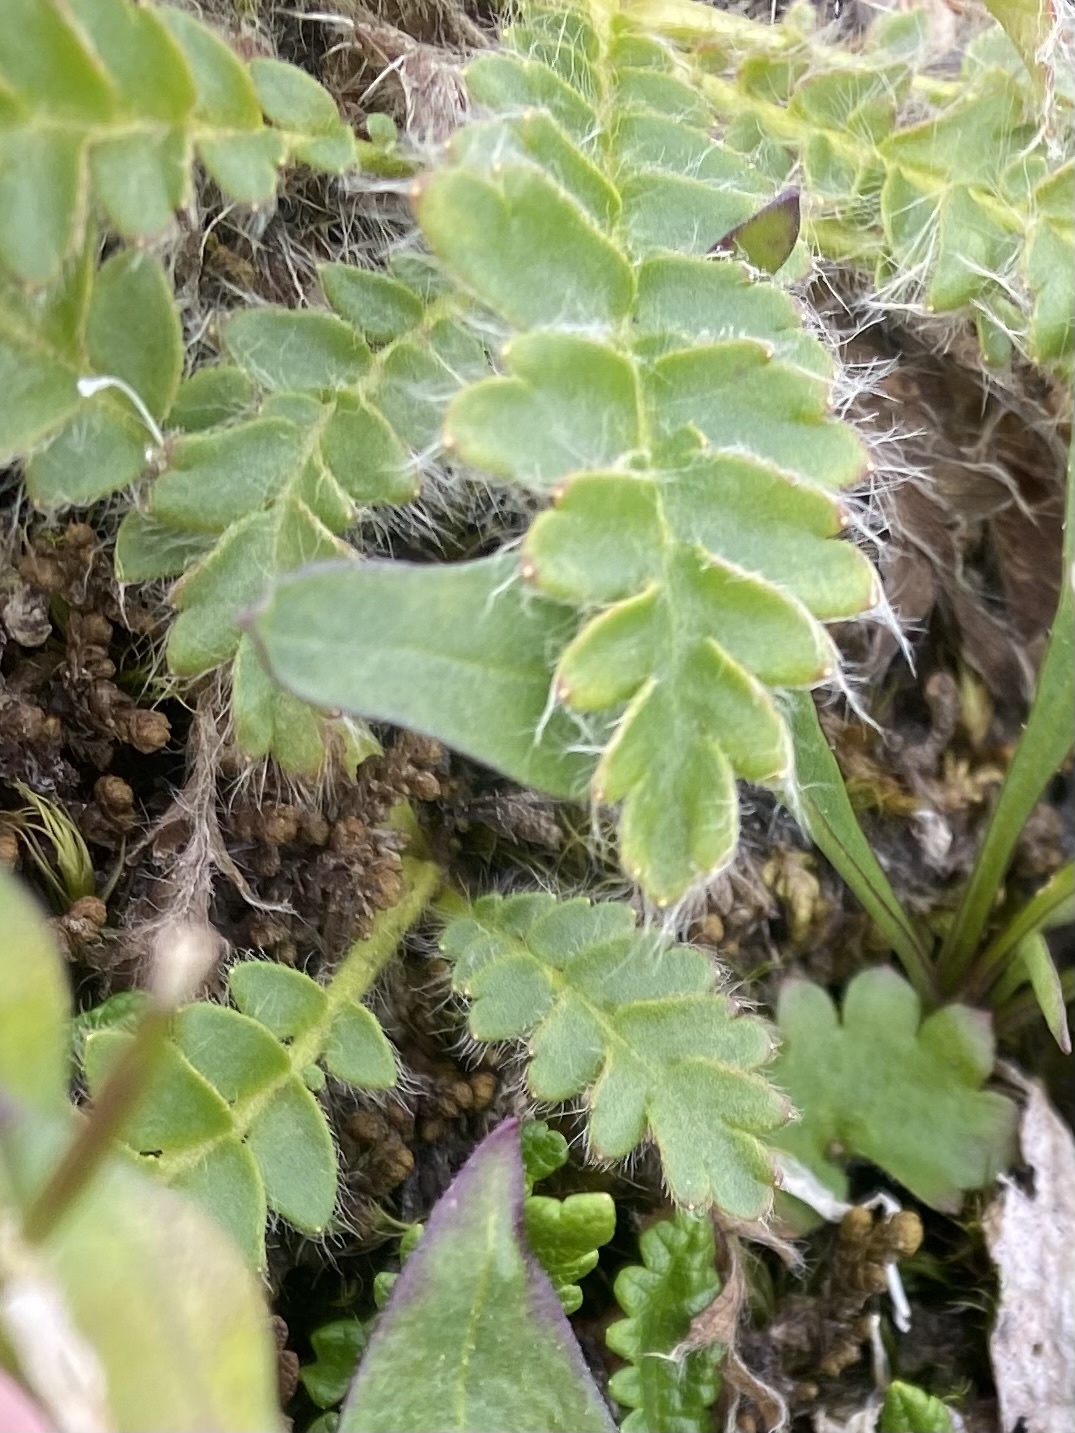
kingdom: Plantae
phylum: Tracheophyta
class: Magnoliopsida
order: Rosales
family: Rosaceae
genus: Geum
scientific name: Geum glaciale
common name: Glacier avens
